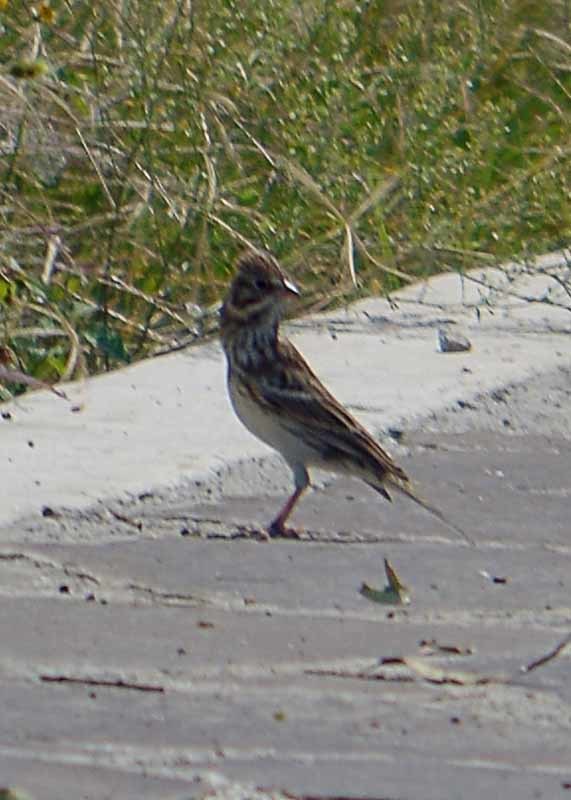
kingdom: Animalia
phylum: Chordata
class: Aves
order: Passeriformes
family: Passerellidae
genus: Passerculus
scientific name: Passerculus sandwichensis
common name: Savannah sparrow
